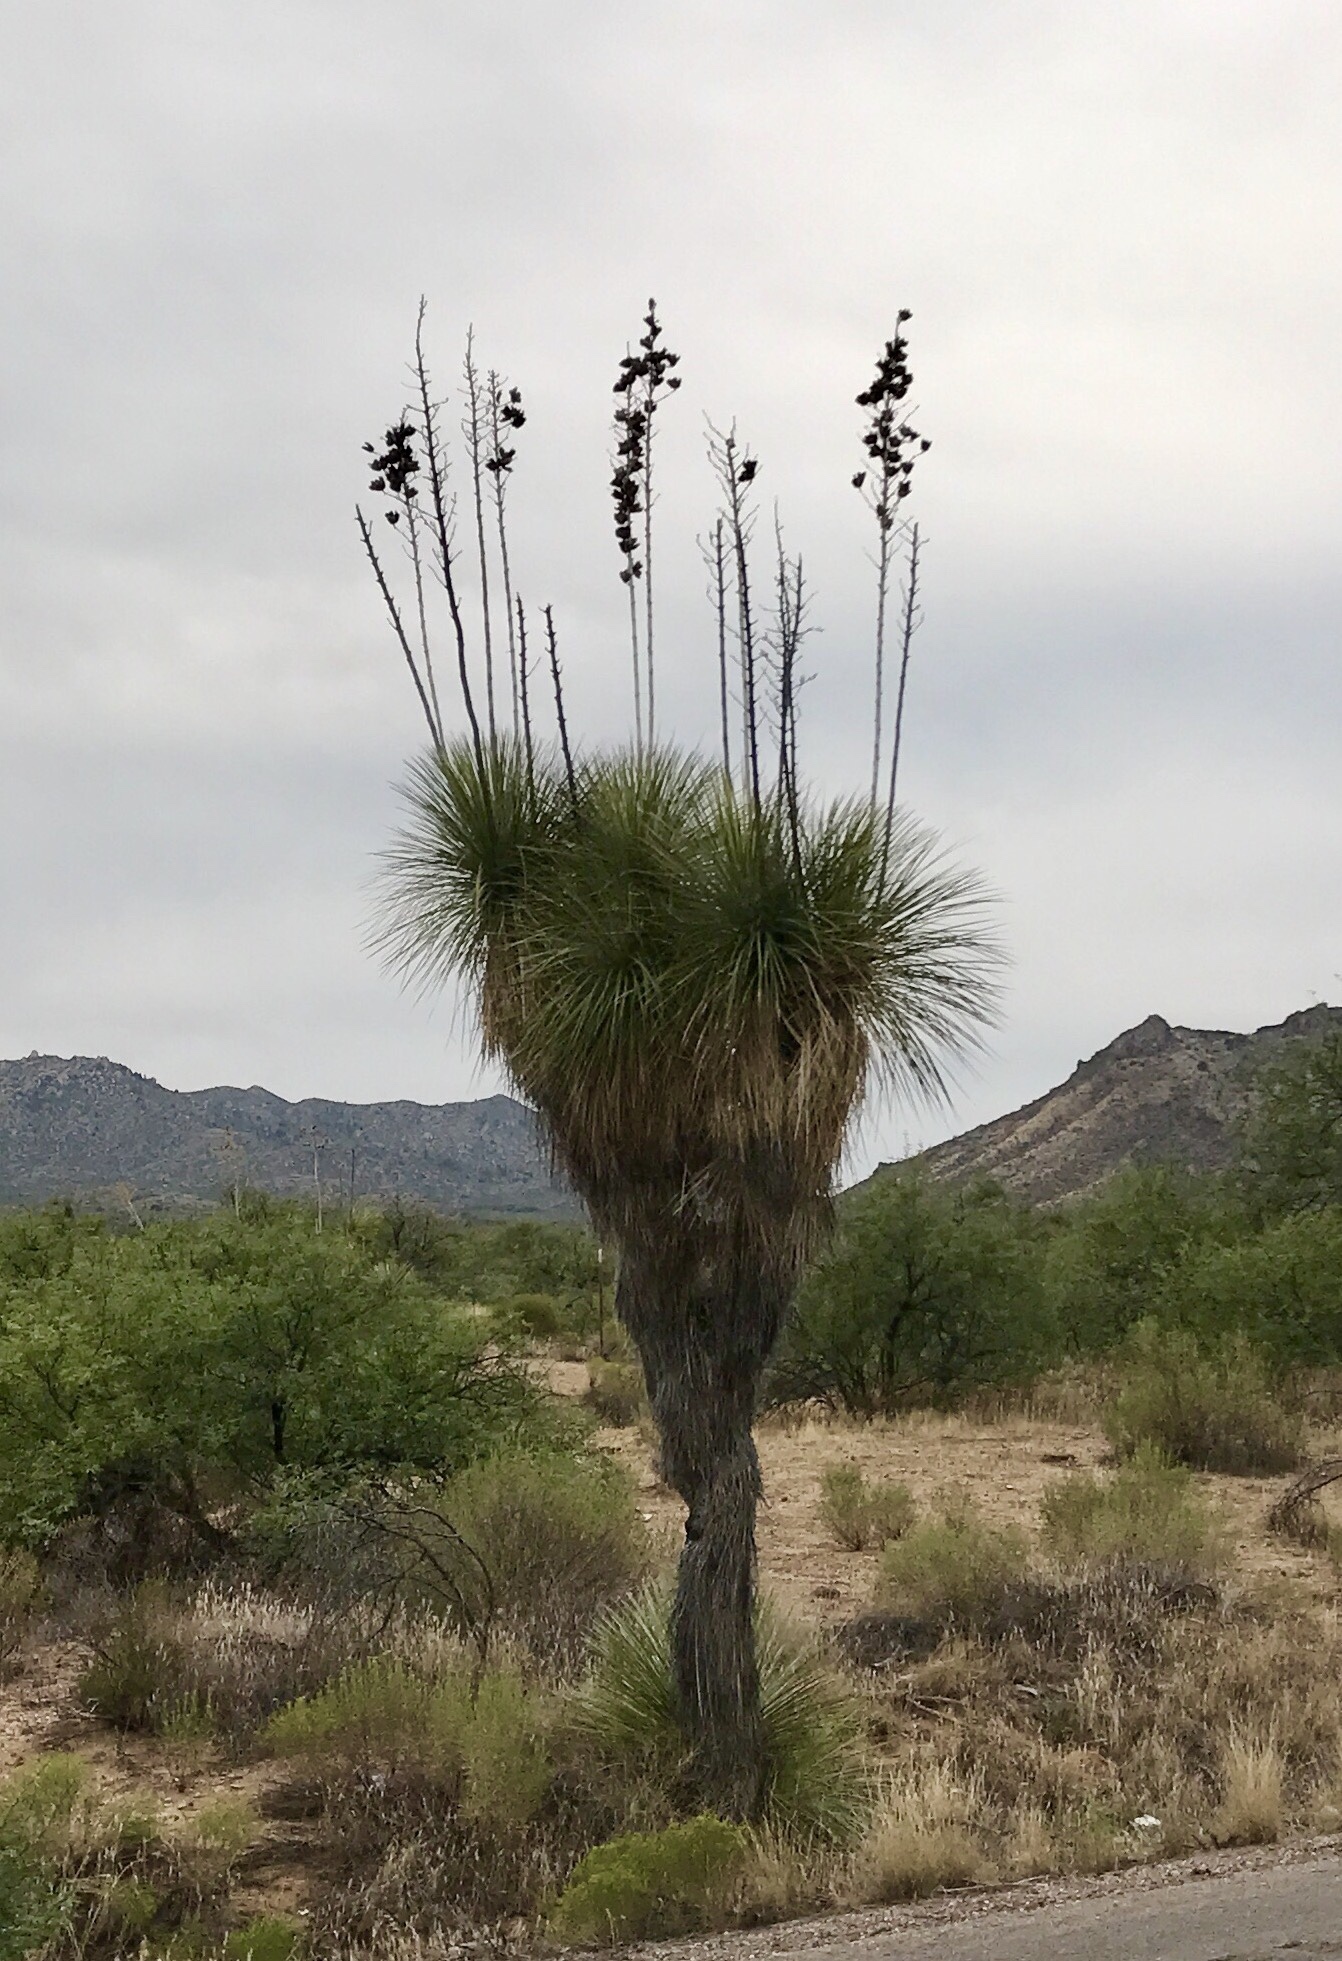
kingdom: Plantae
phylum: Tracheophyta
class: Liliopsida
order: Asparagales
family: Asparagaceae
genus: Yucca
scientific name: Yucca elata
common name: Palmella
